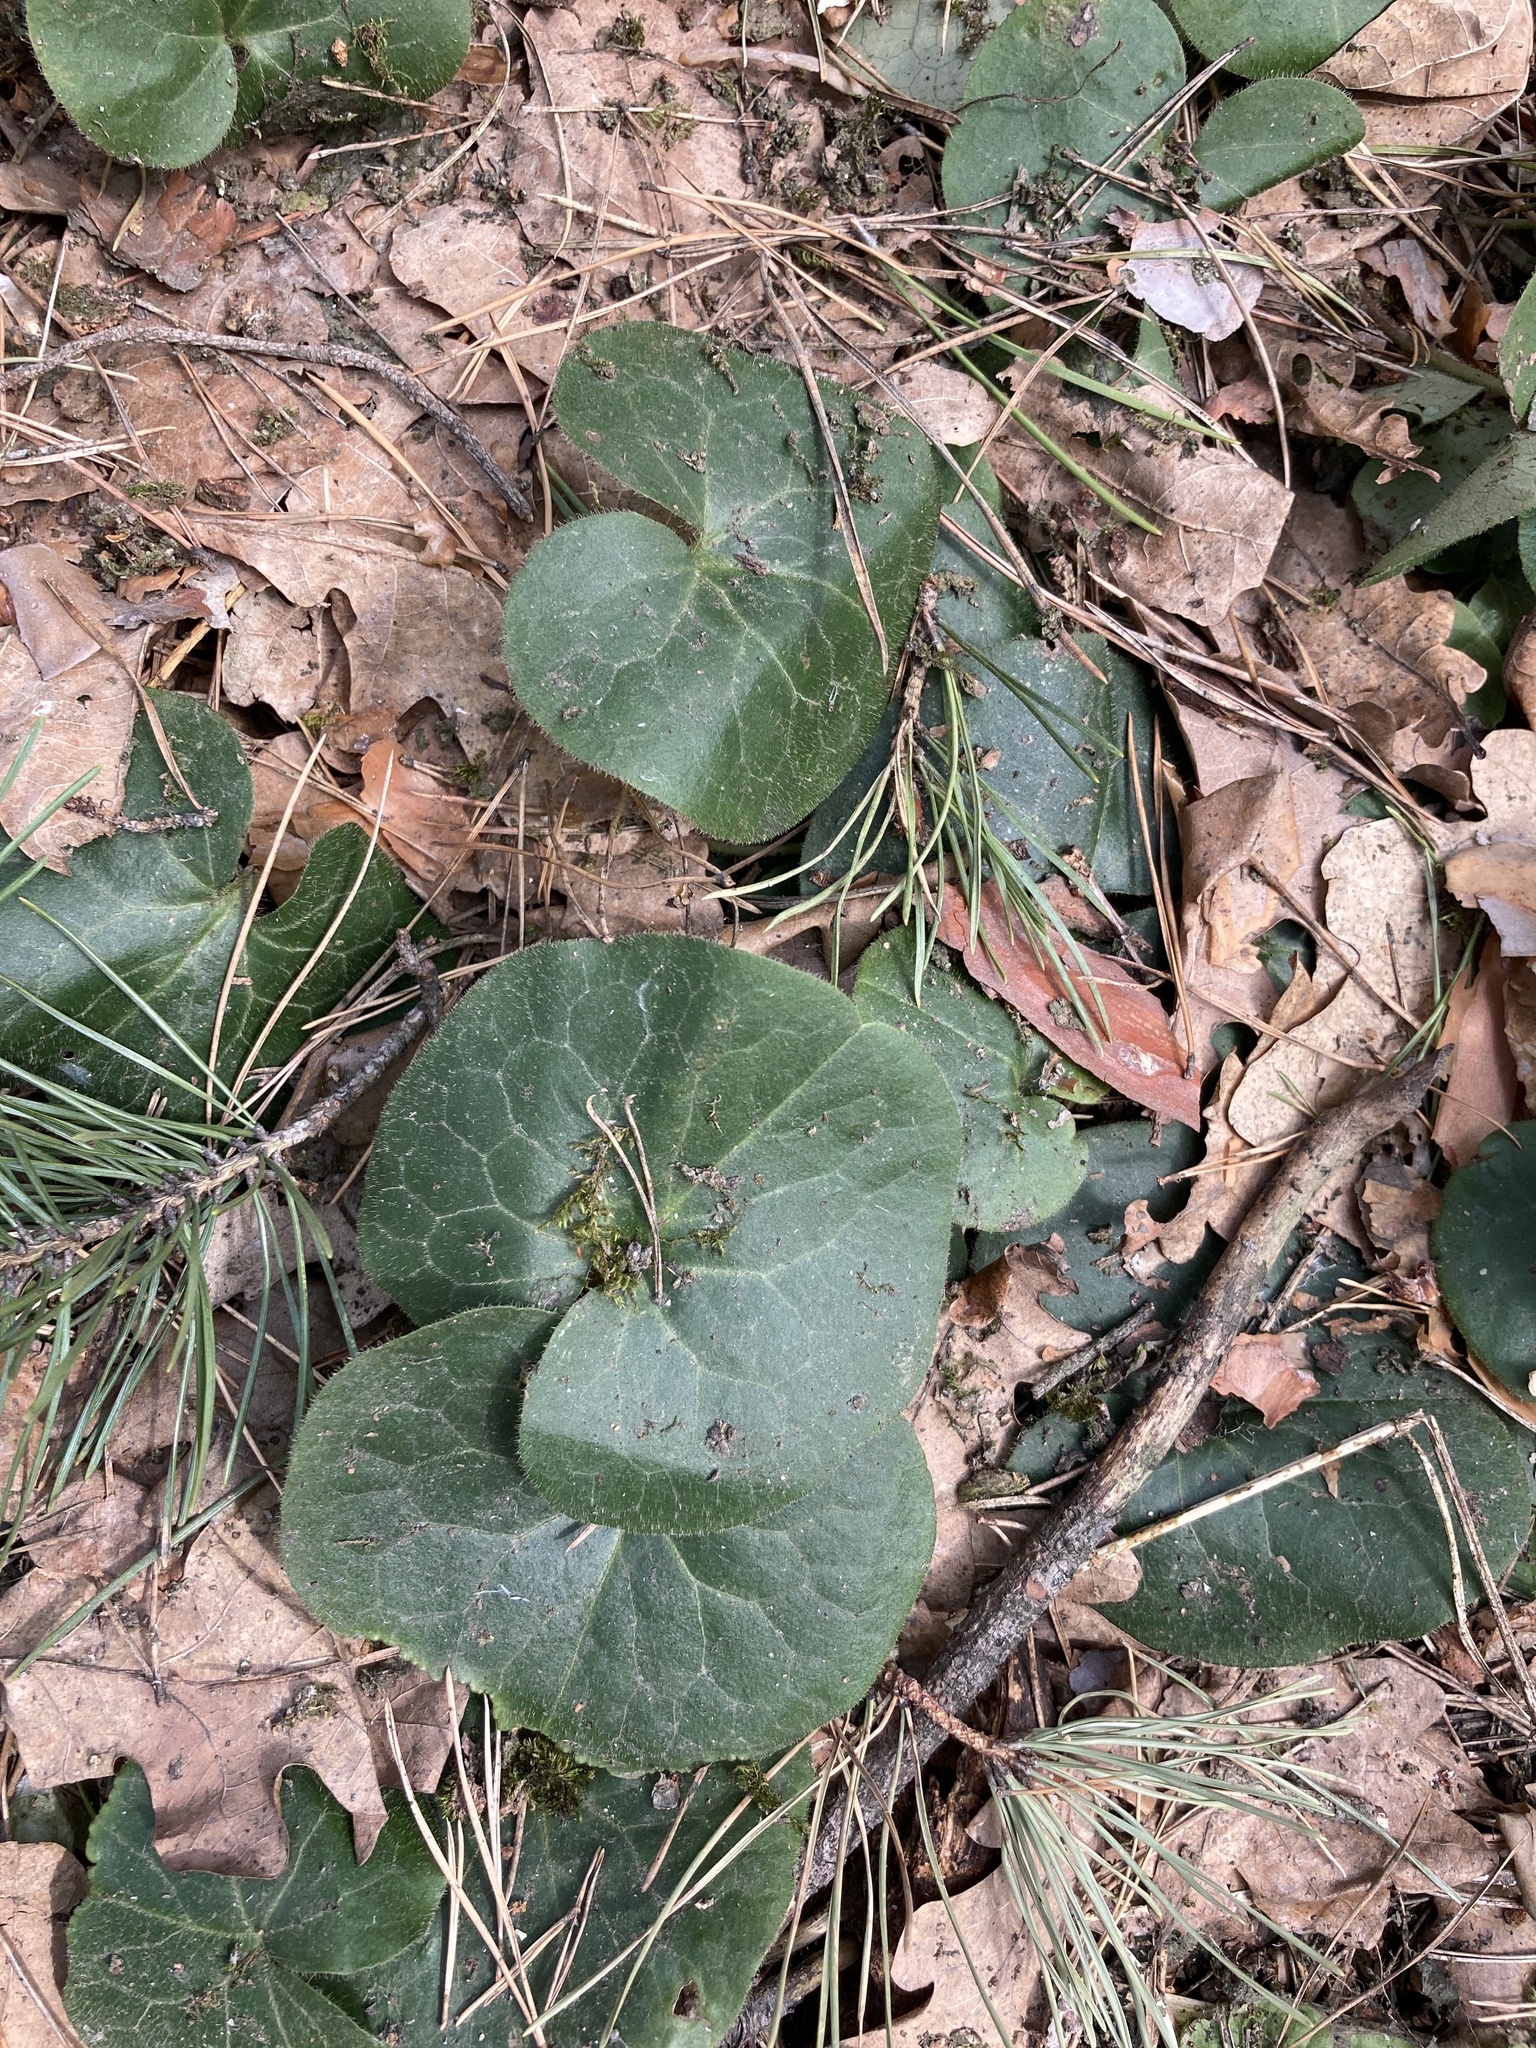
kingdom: Plantae
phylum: Tracheophyta
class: Magnoliopsida
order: Piperales
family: Aristolochiaceae
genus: Asarum
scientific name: Asarum europaeum
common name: Asarabacca
